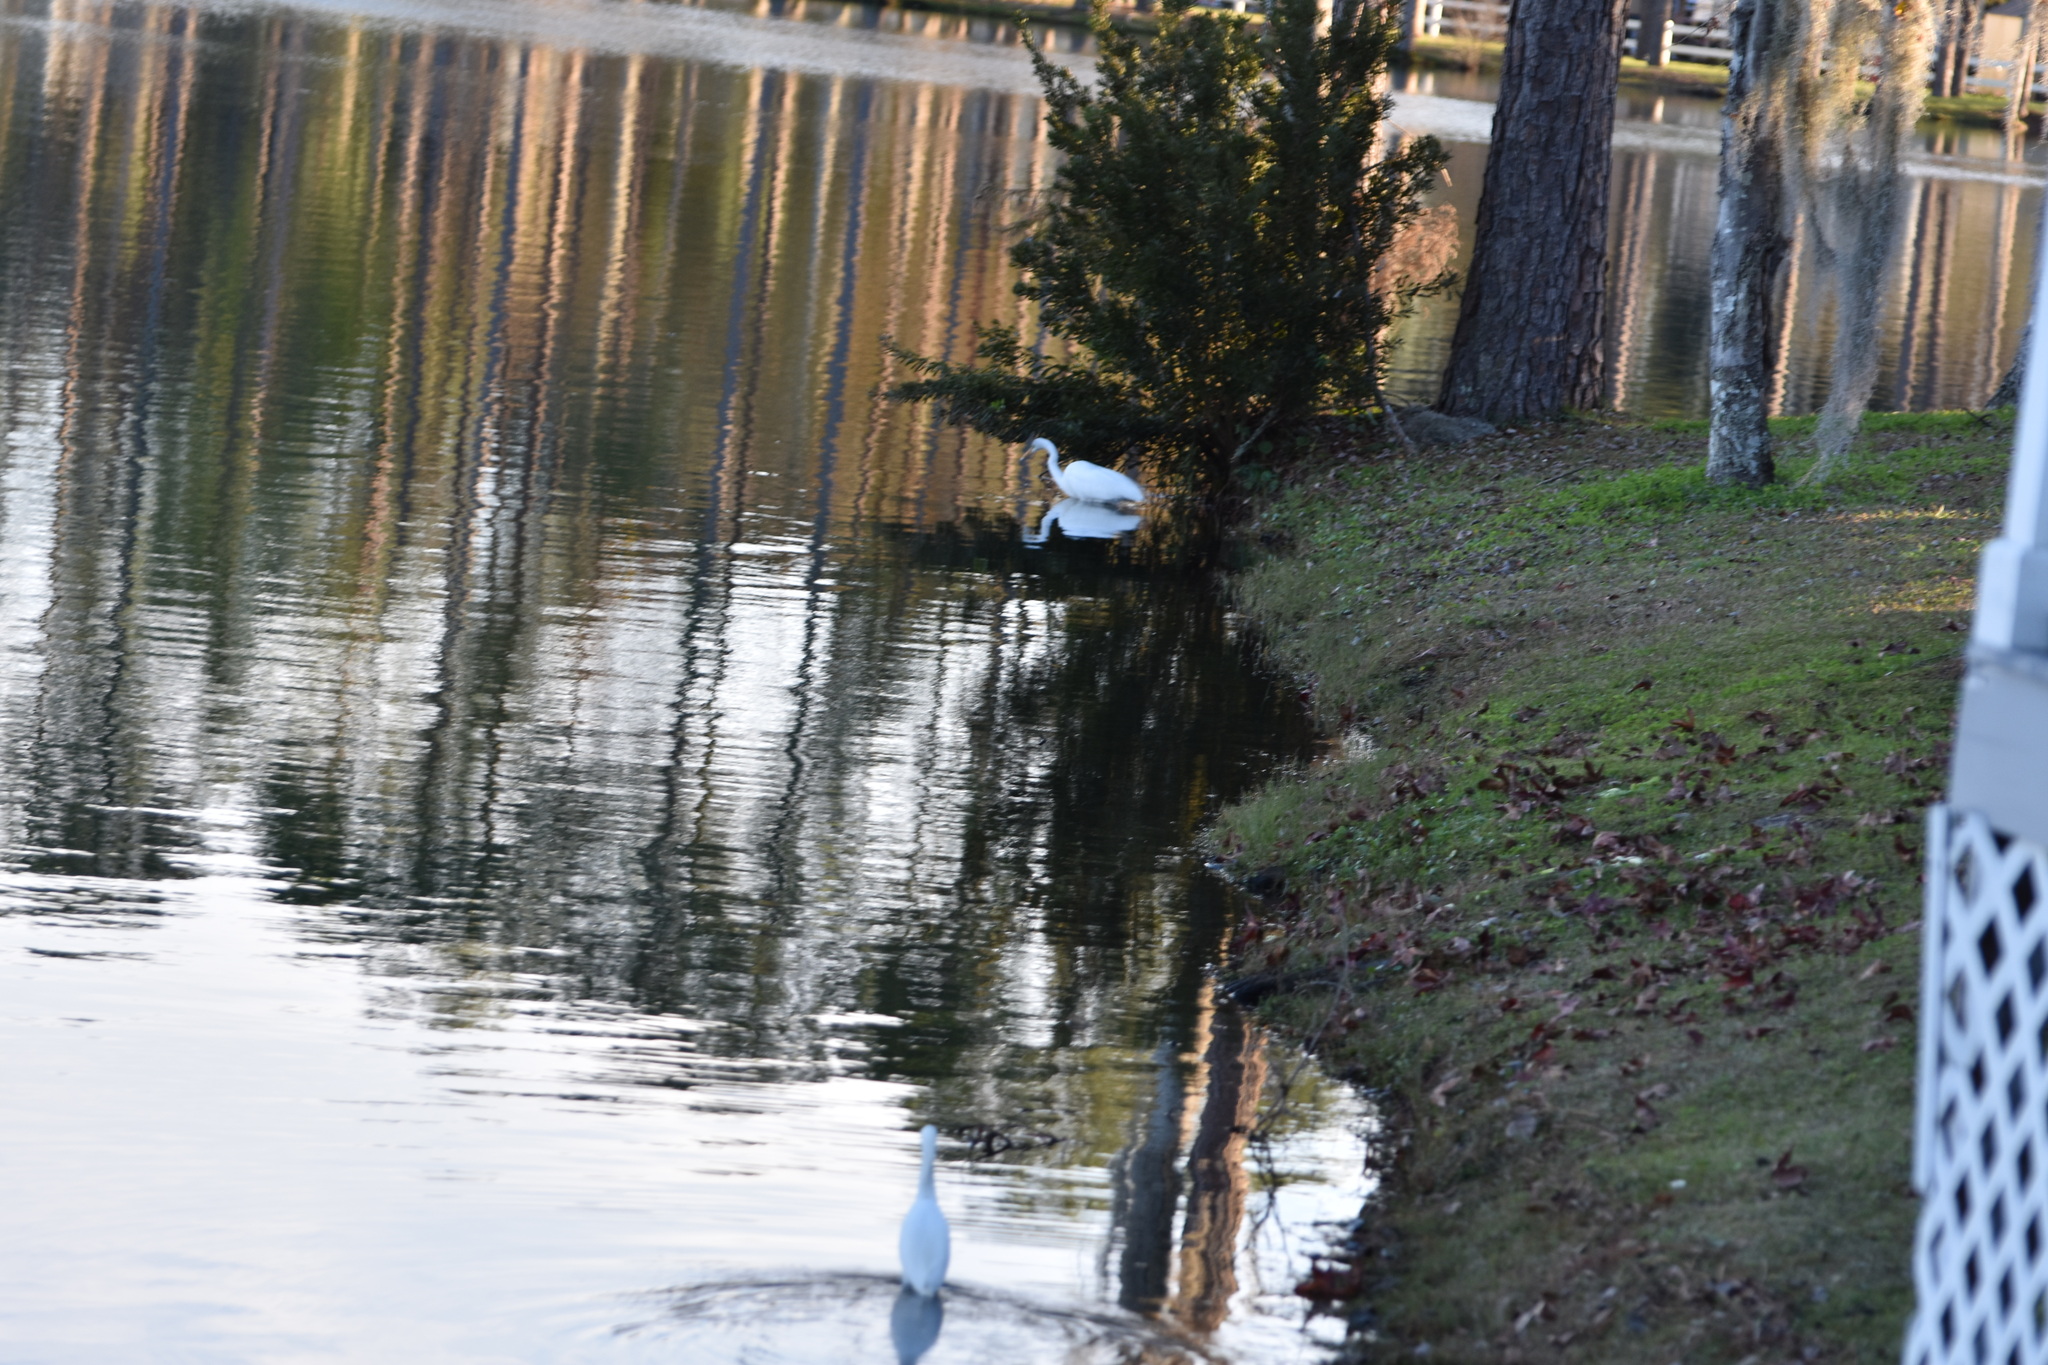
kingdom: Animalia
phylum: Chordata
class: Aves
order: Pelecaniformes
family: Ardeidae
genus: Ardea
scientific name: Ardea alba
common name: Great egret
